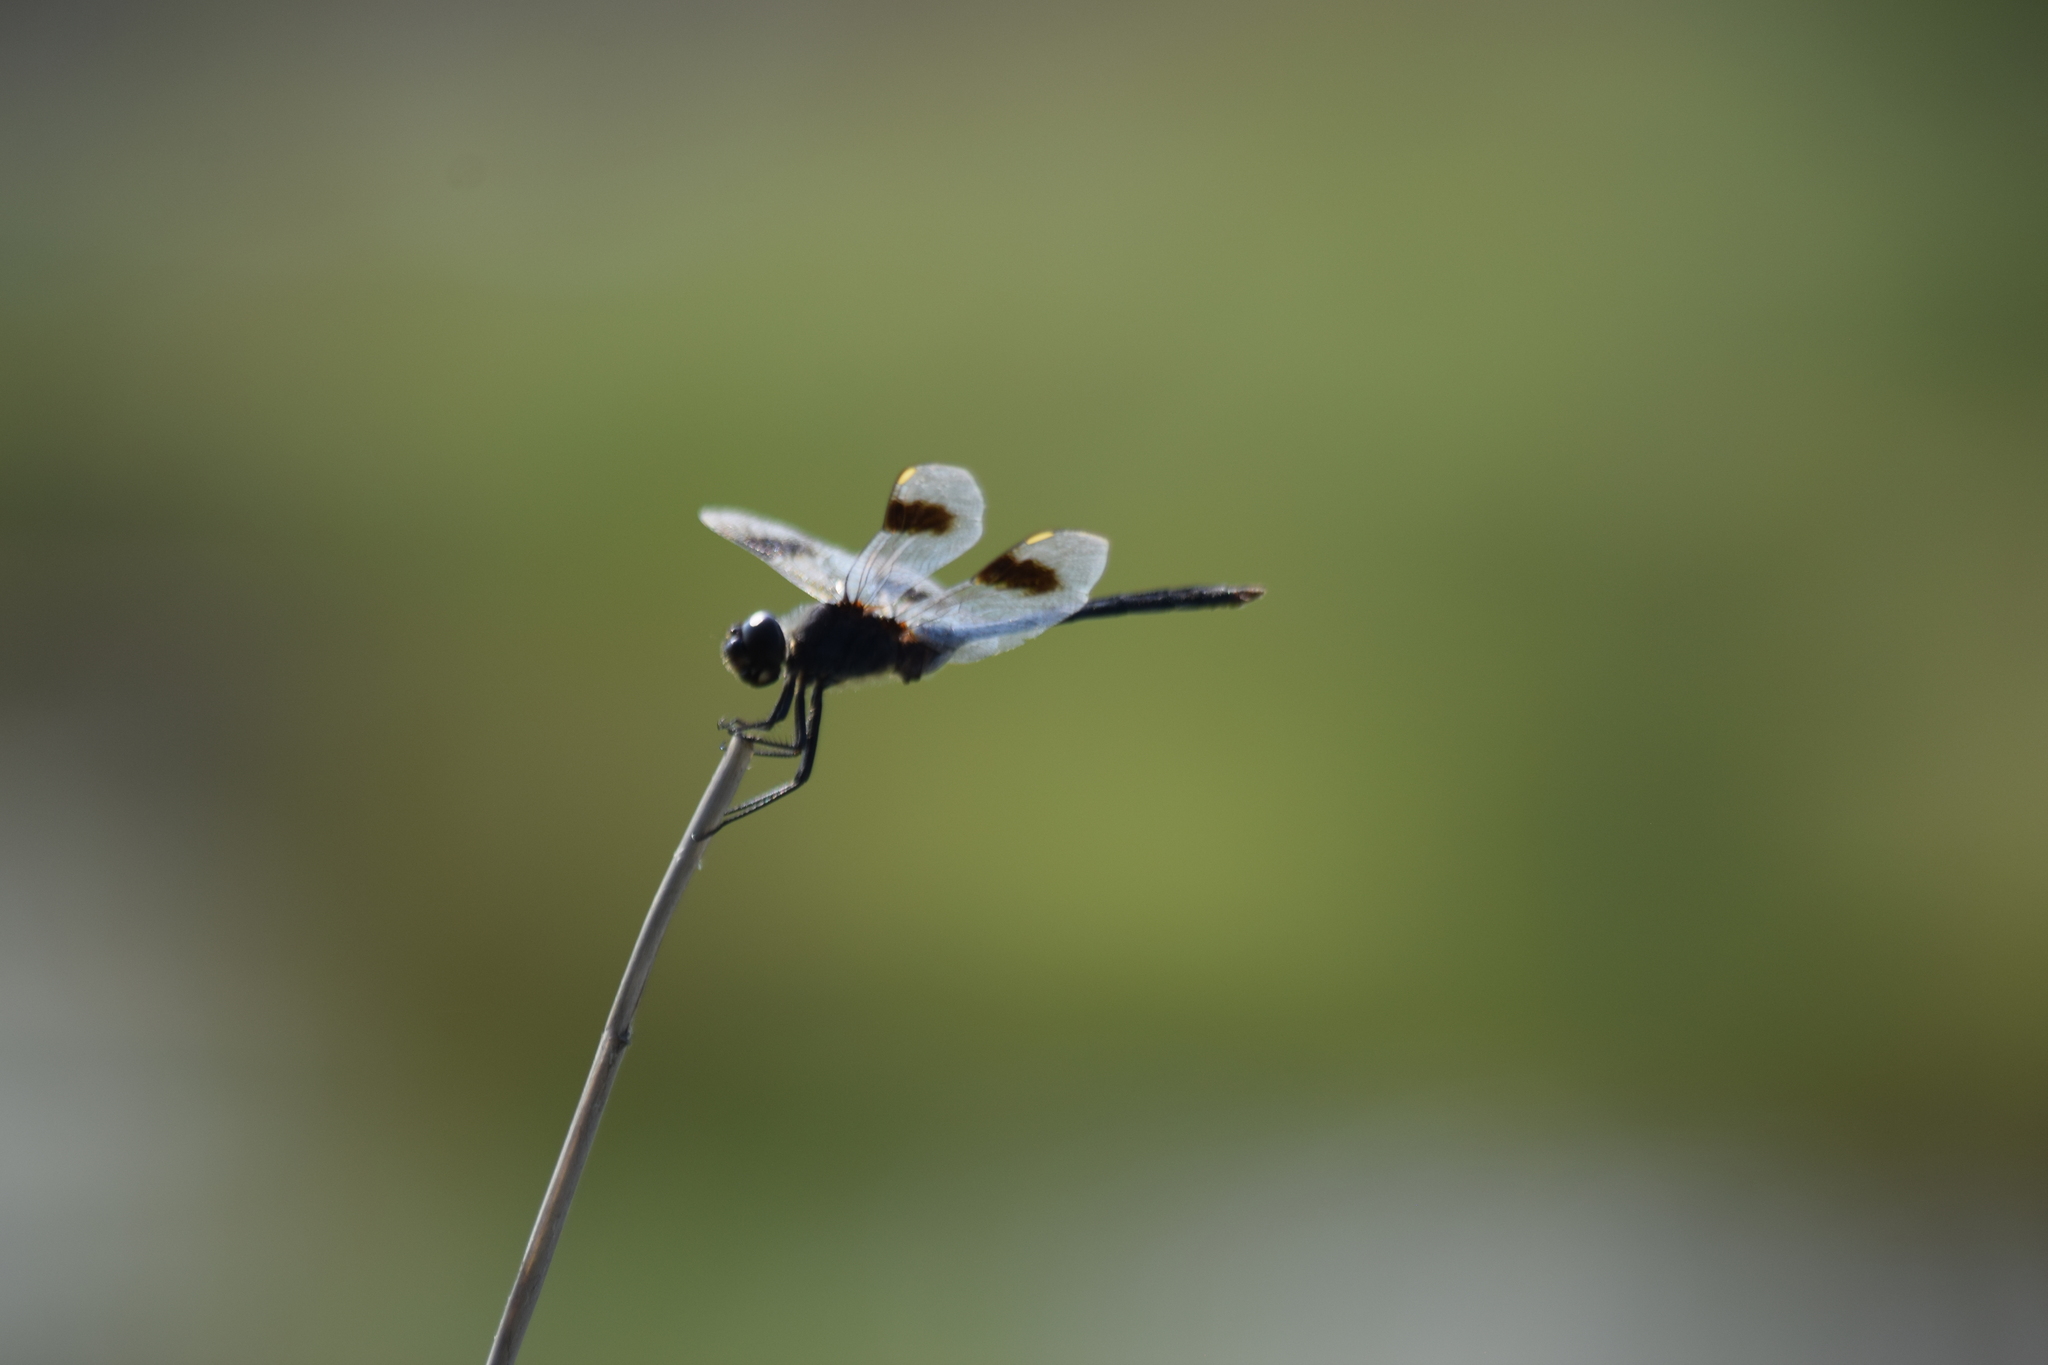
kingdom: Animalia
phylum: Arthropoda
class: Insecta
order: Odonata
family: Libellulidae
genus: Brachymesia
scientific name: Brachymesia gravida
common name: Four-spotted pennant
